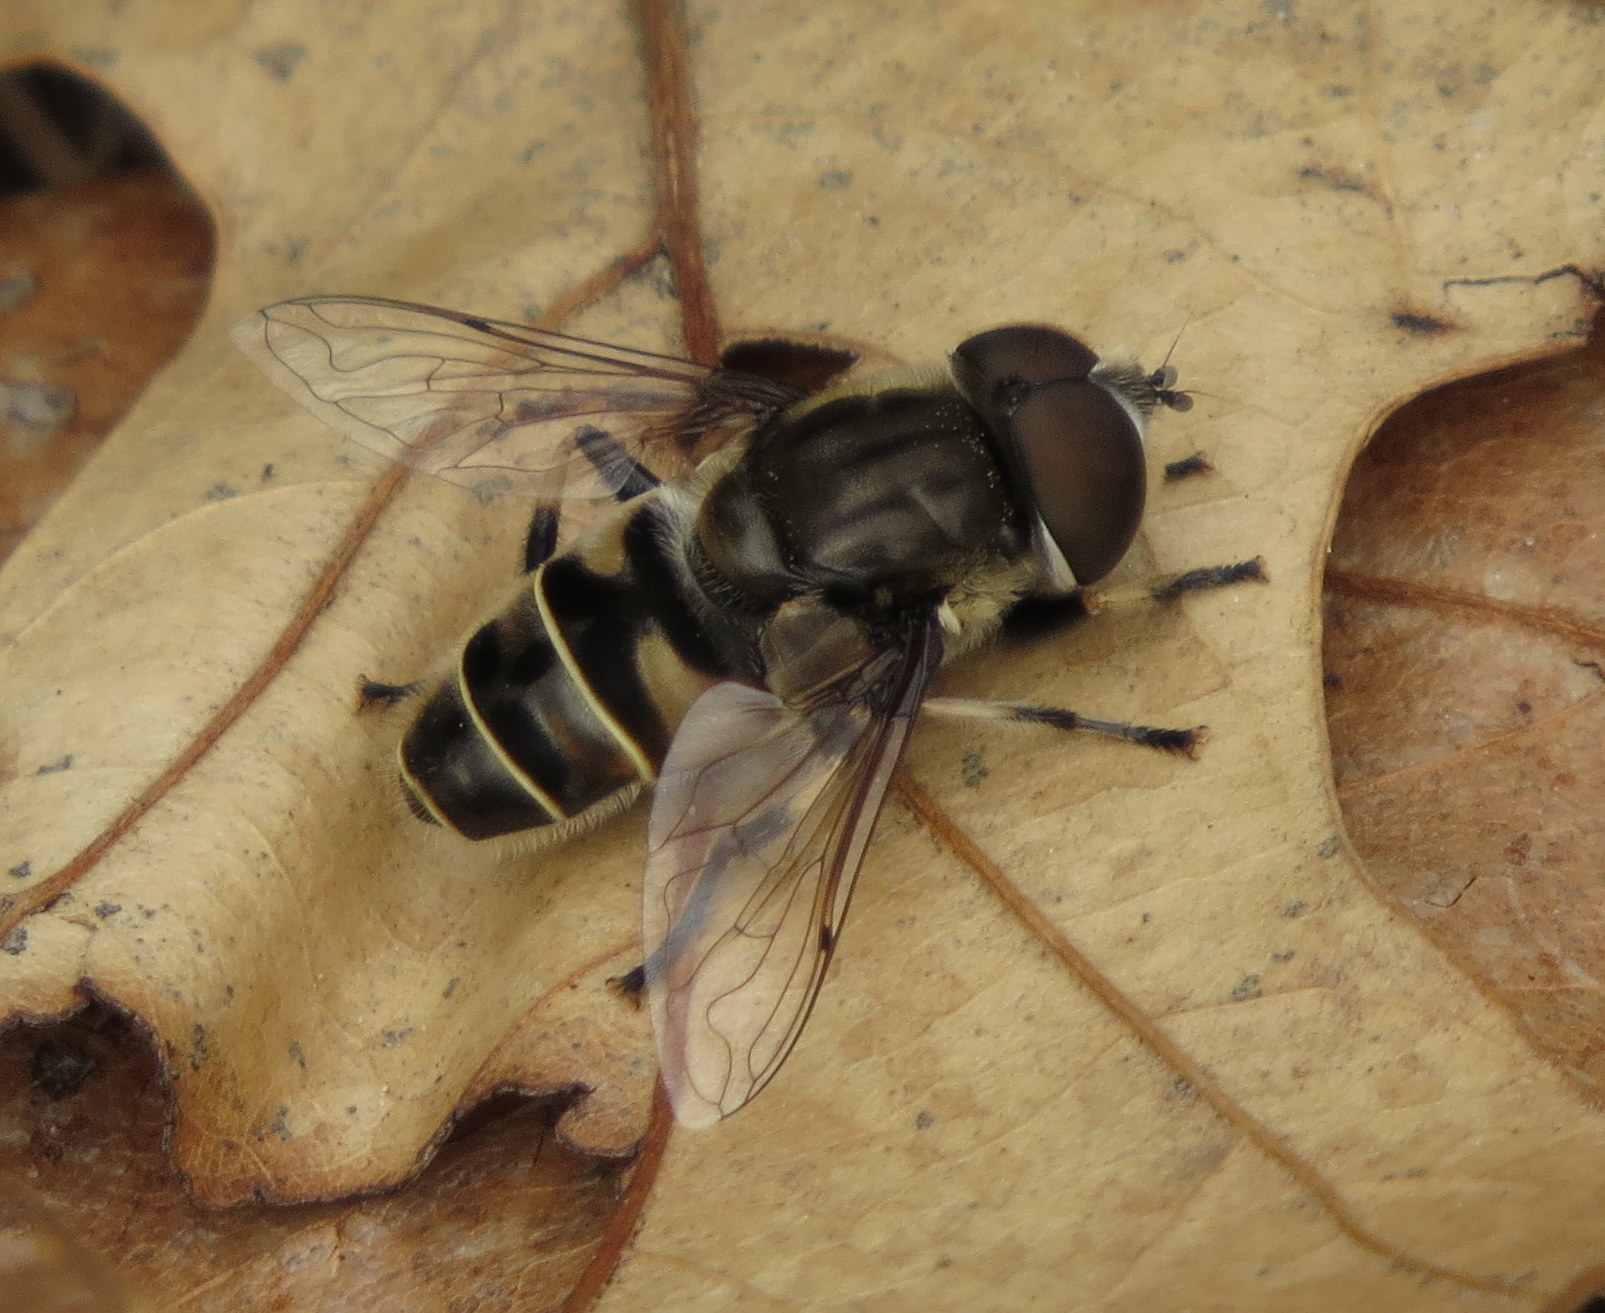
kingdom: Animalia
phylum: Arthropoda
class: Insecta
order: Diptera
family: Syrphidae
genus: Eristalis
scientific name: Eristalis dimidiata
